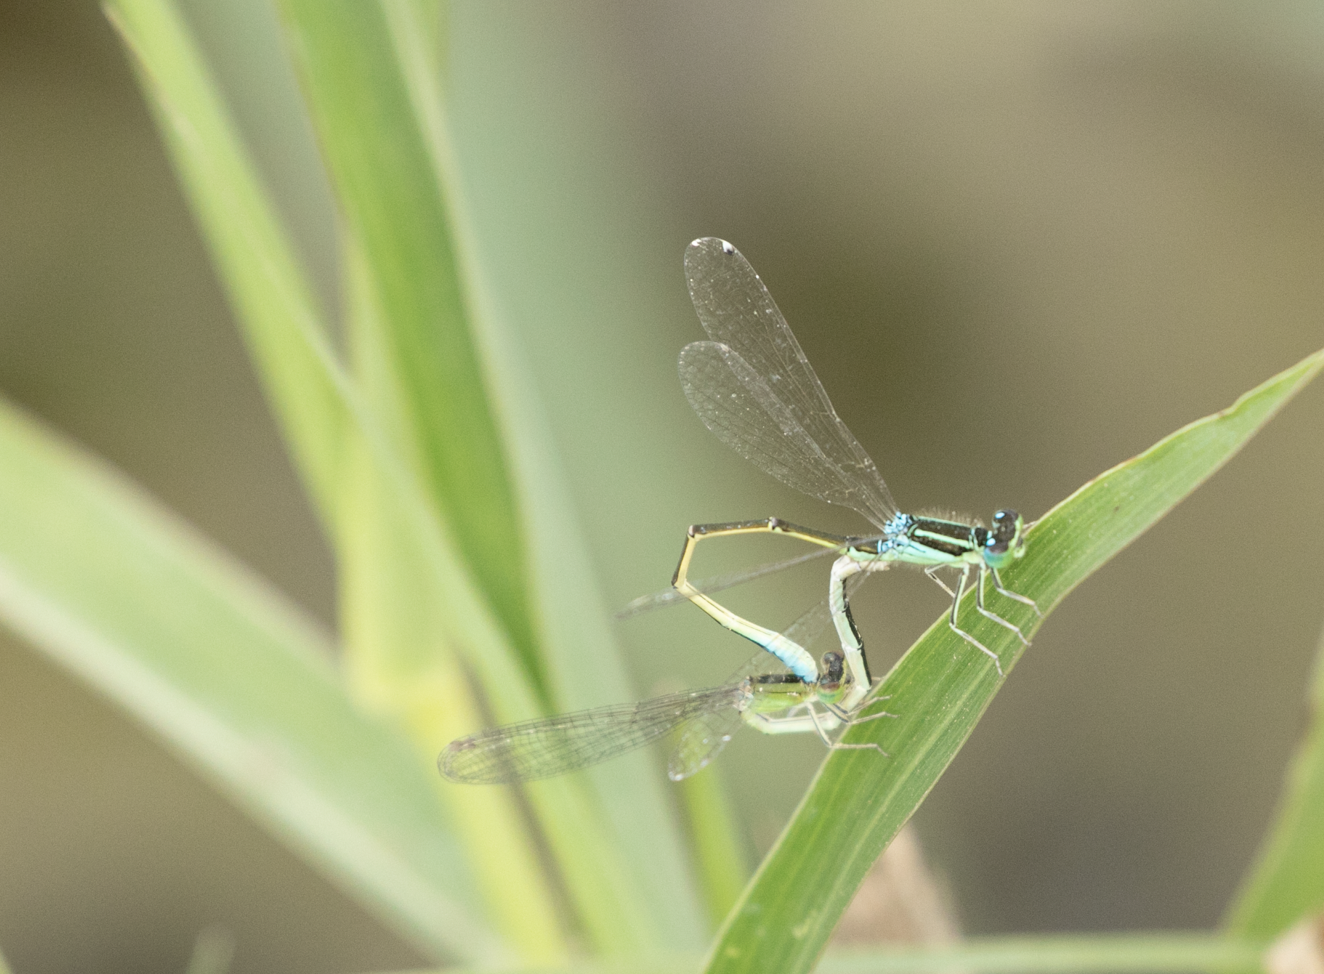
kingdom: Animalia
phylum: Arthropoda
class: Insecta
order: Odonata
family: Coenagrionidae
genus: Ischnura
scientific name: Ischnura pumilio
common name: Scarce blue-tailed damselfly
